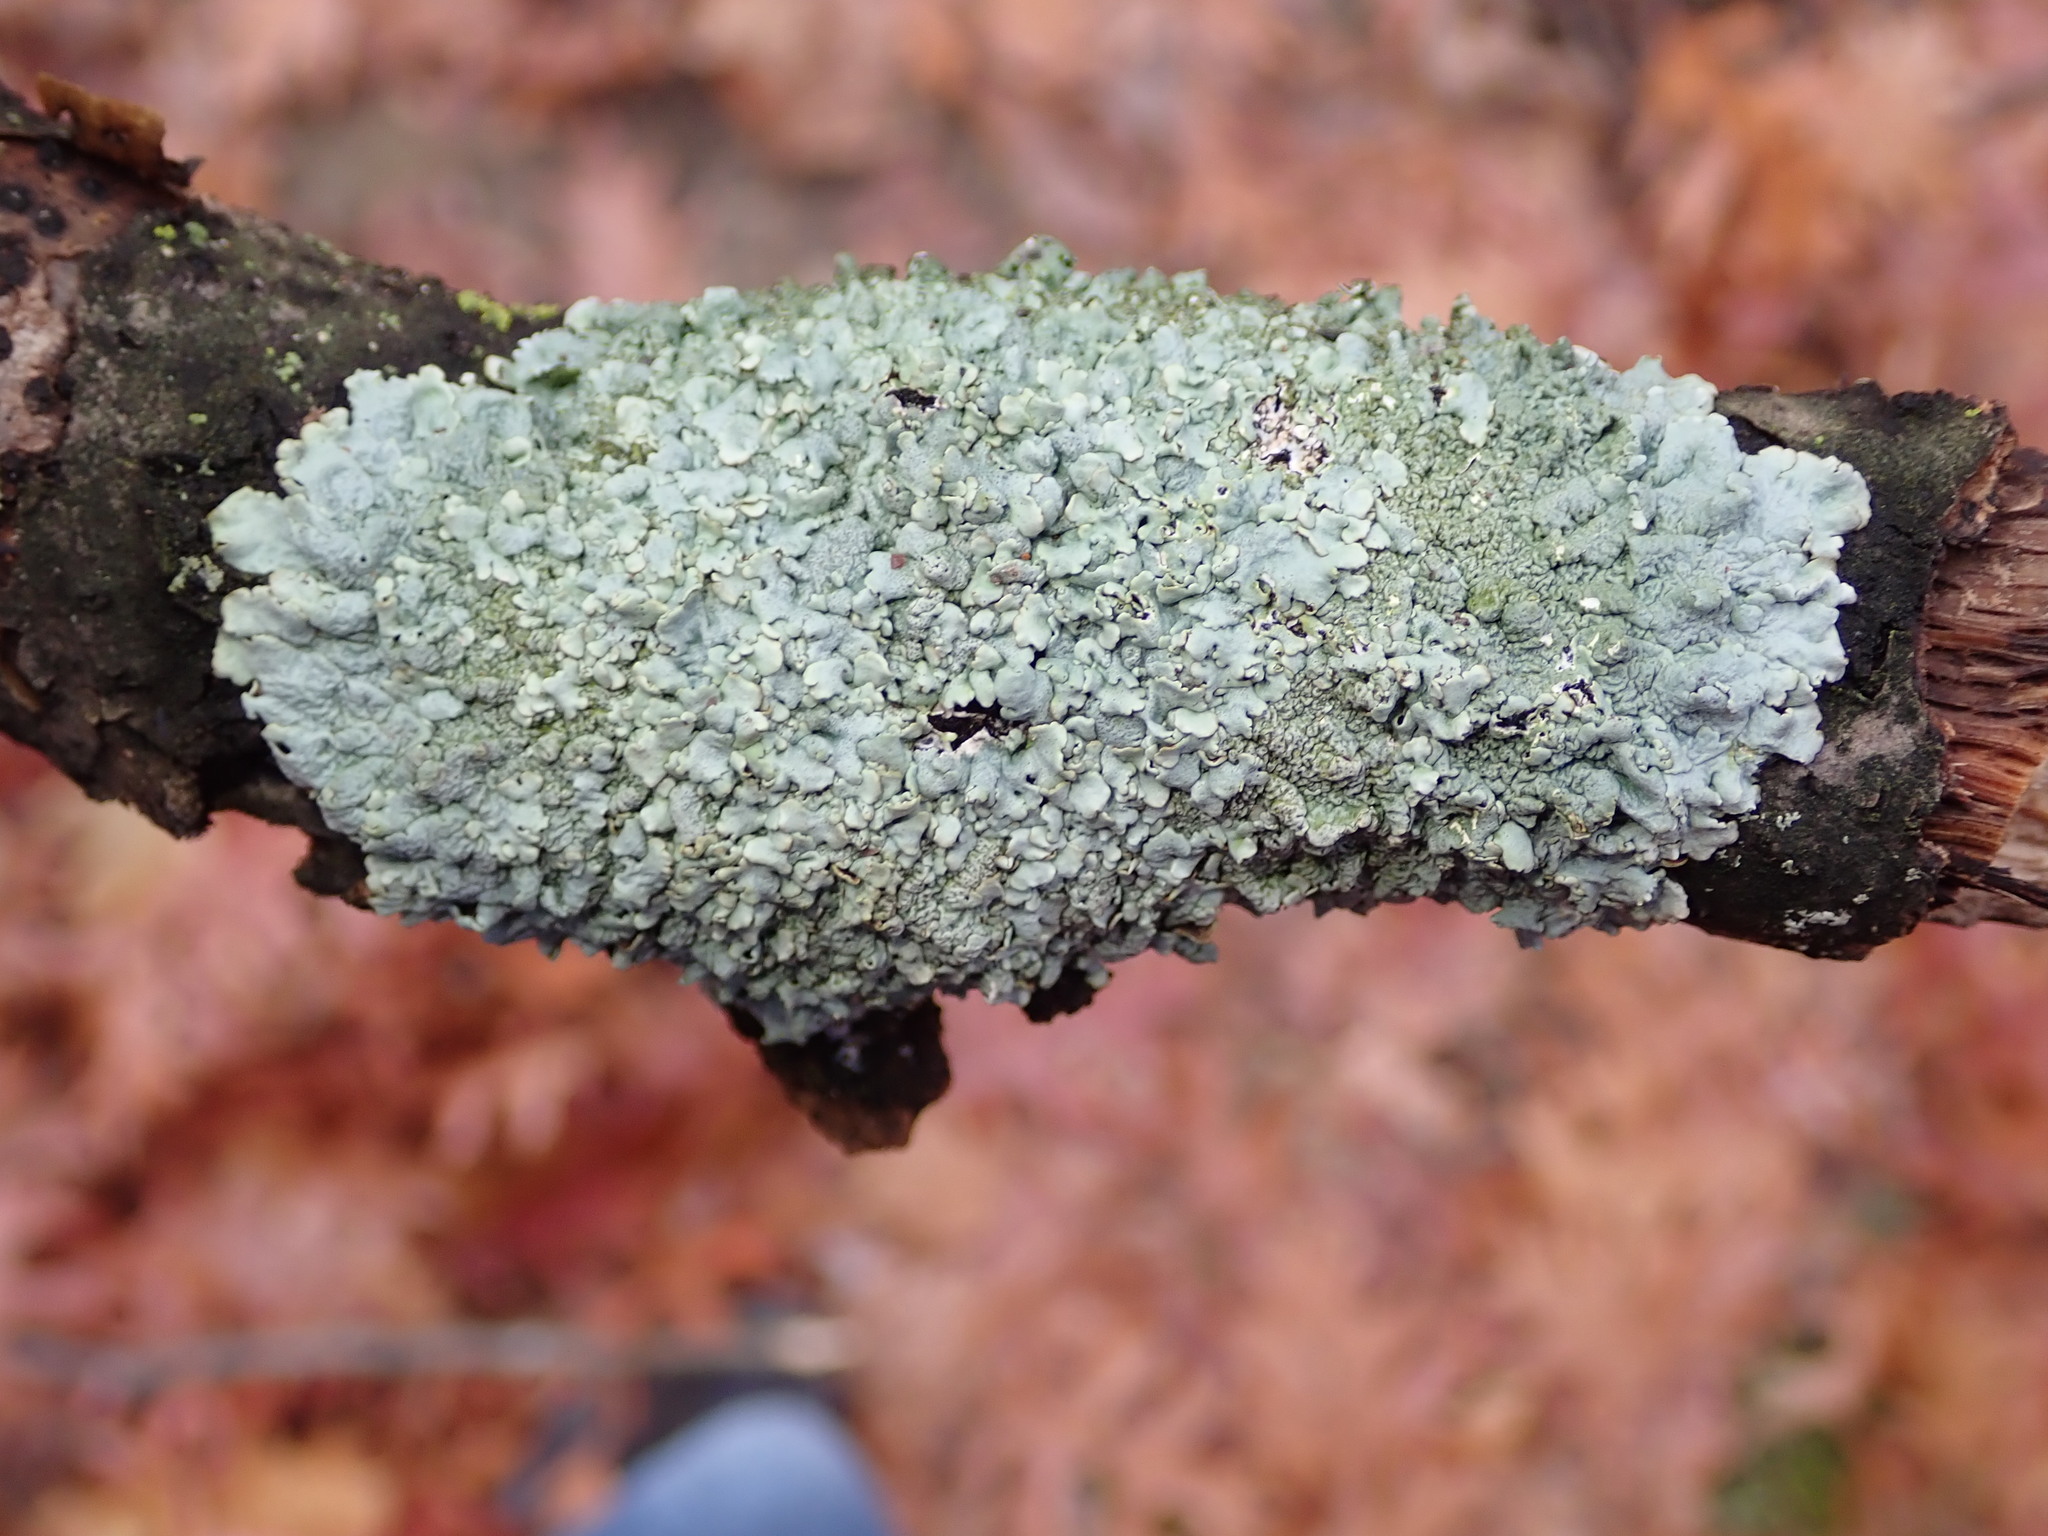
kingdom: Fungi
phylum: Ascomycota
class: Lecanoromycetes
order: Lecanorales
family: Parmeliaceae
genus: Myelochroa
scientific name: Myelochroa galbina
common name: Smooth axil-bristle lichen
